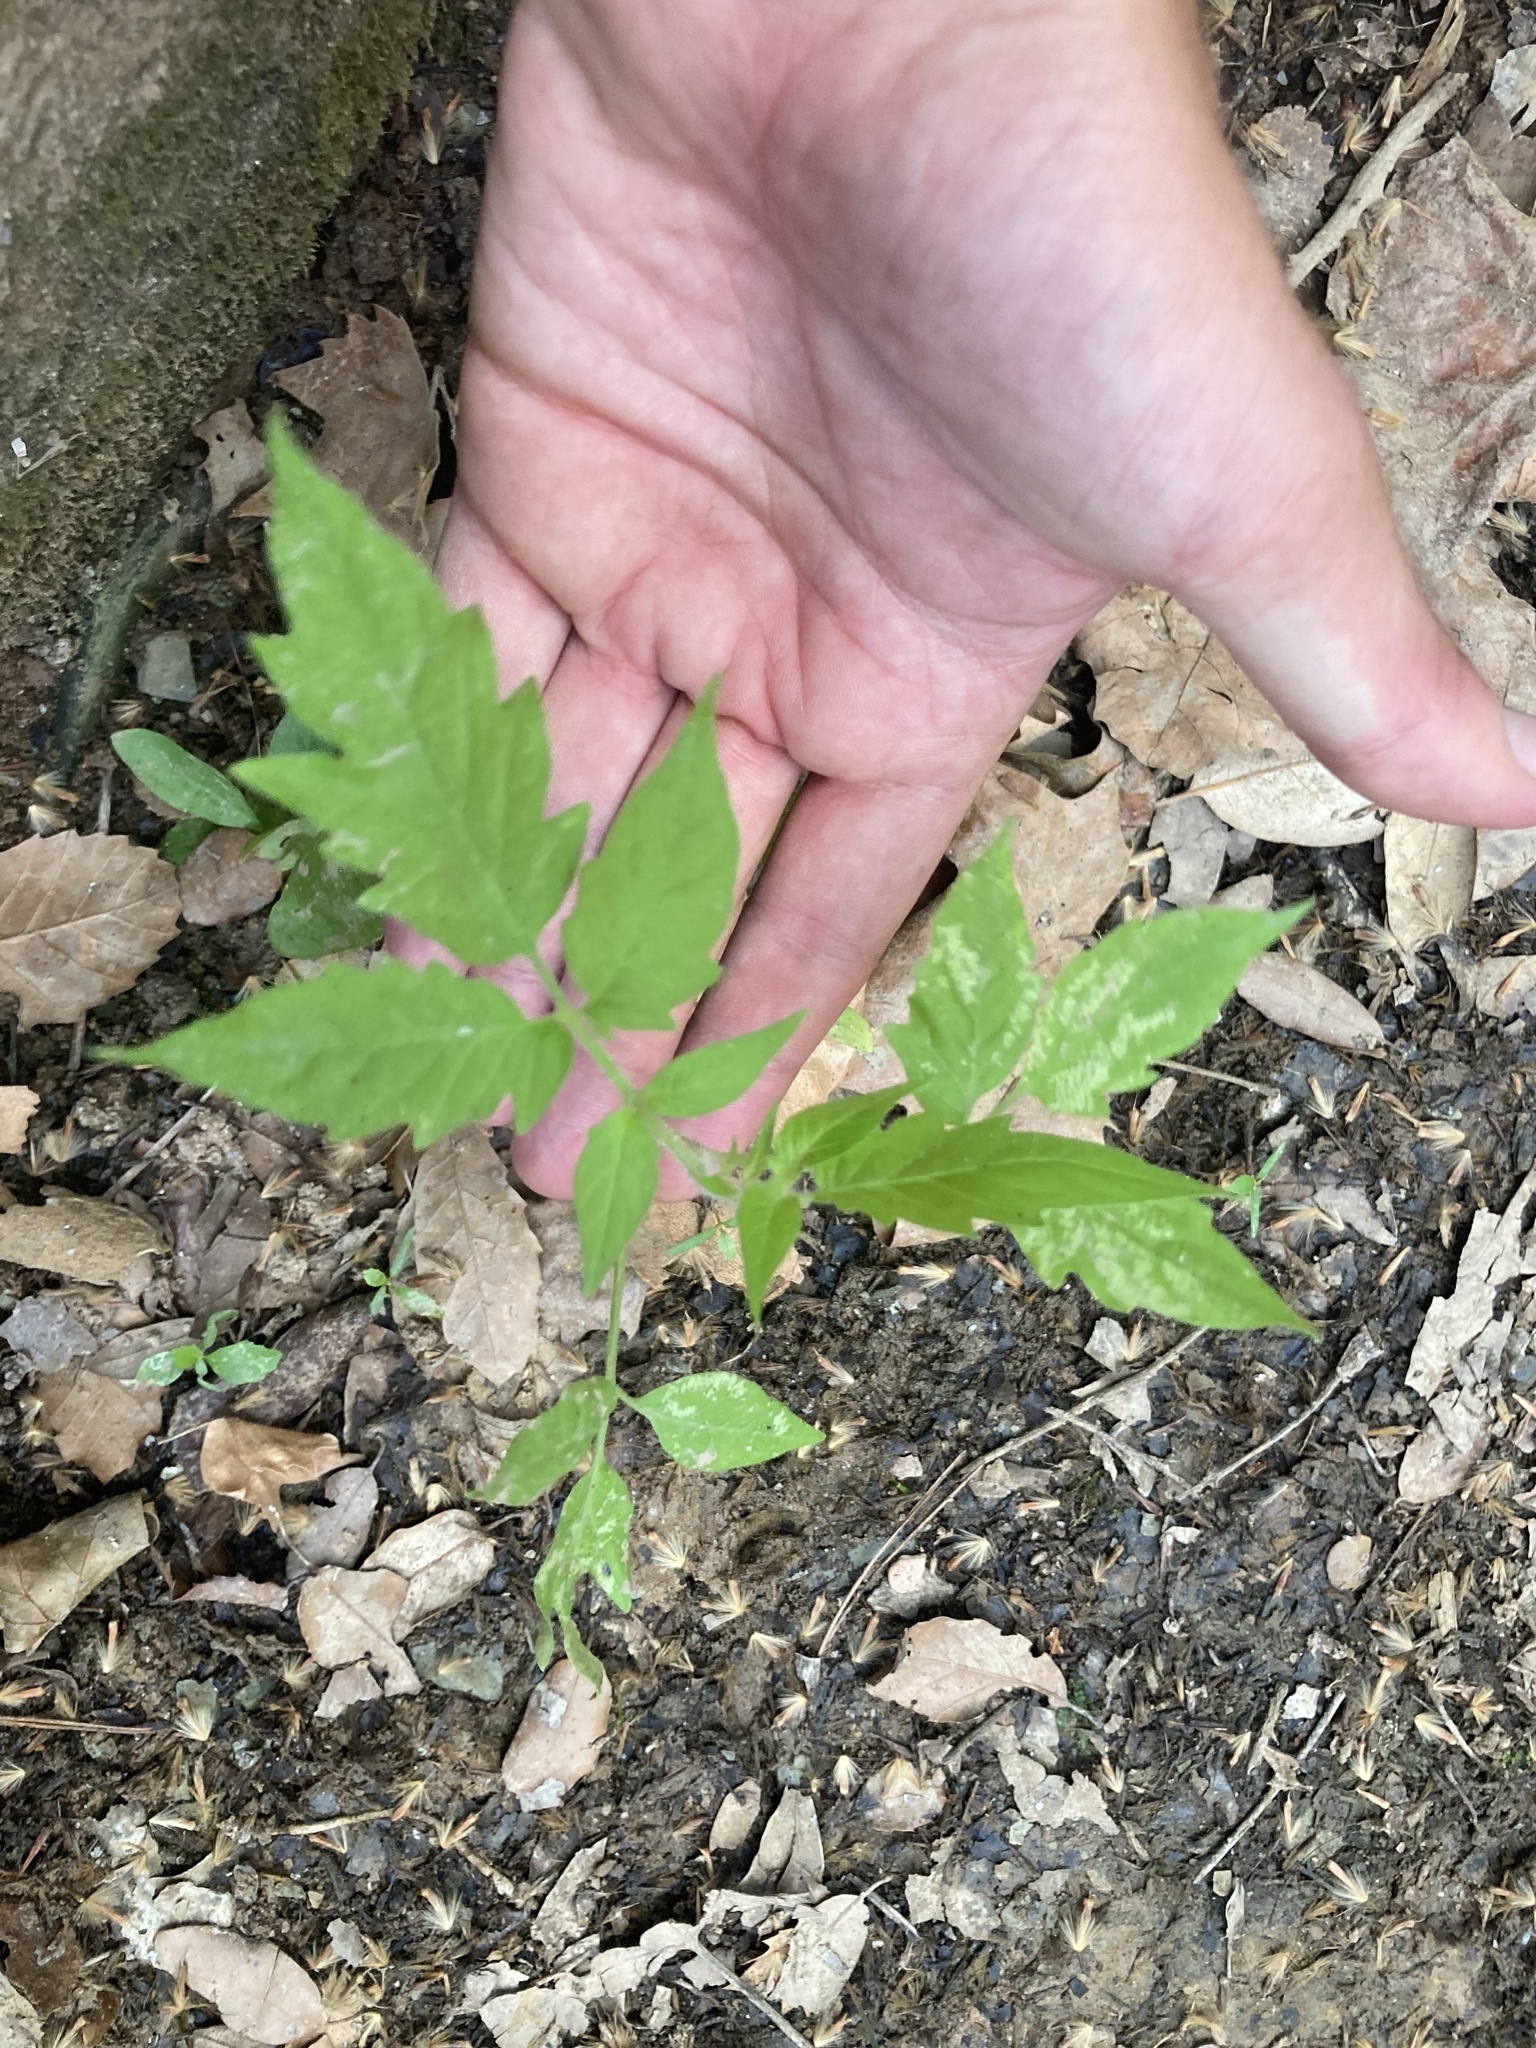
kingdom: Plantae
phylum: Tracheophyta
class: Magnoliopsida
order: Solanales
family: Solanaceae
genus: Solanum
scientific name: Solanum lycopersicum
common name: Garden tomato
